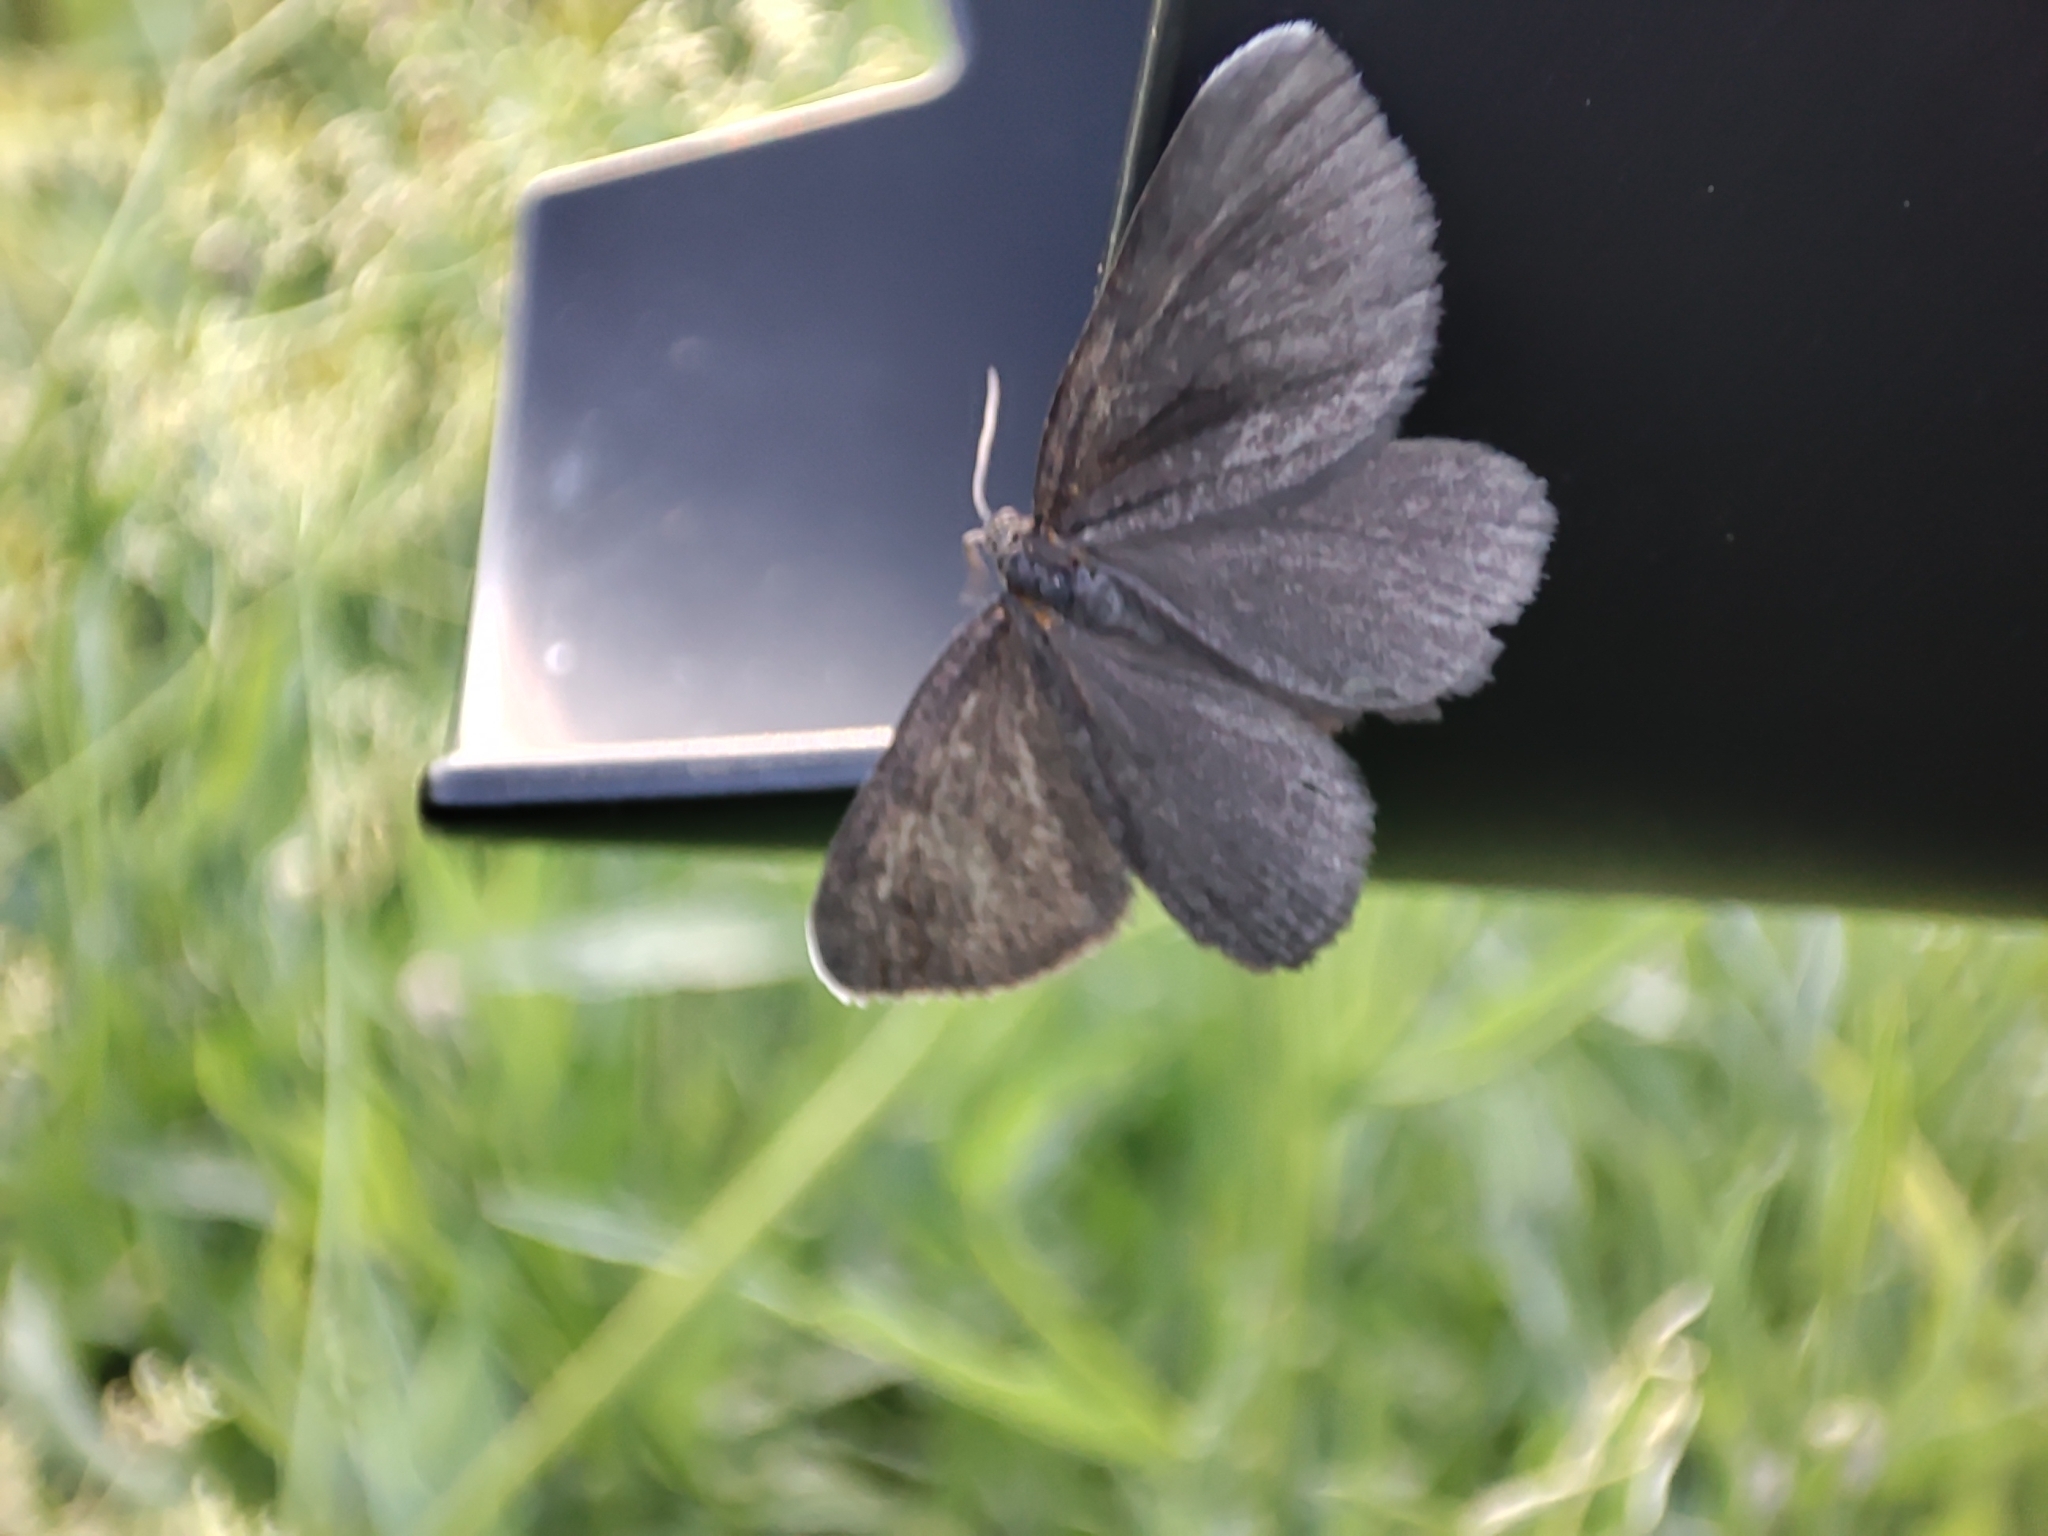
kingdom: Animalia
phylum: Arthropoda
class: Insecta
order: Lepidoptera
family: Geometridae
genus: Odezia
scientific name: Odezia atrata
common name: Chimney sweeper
